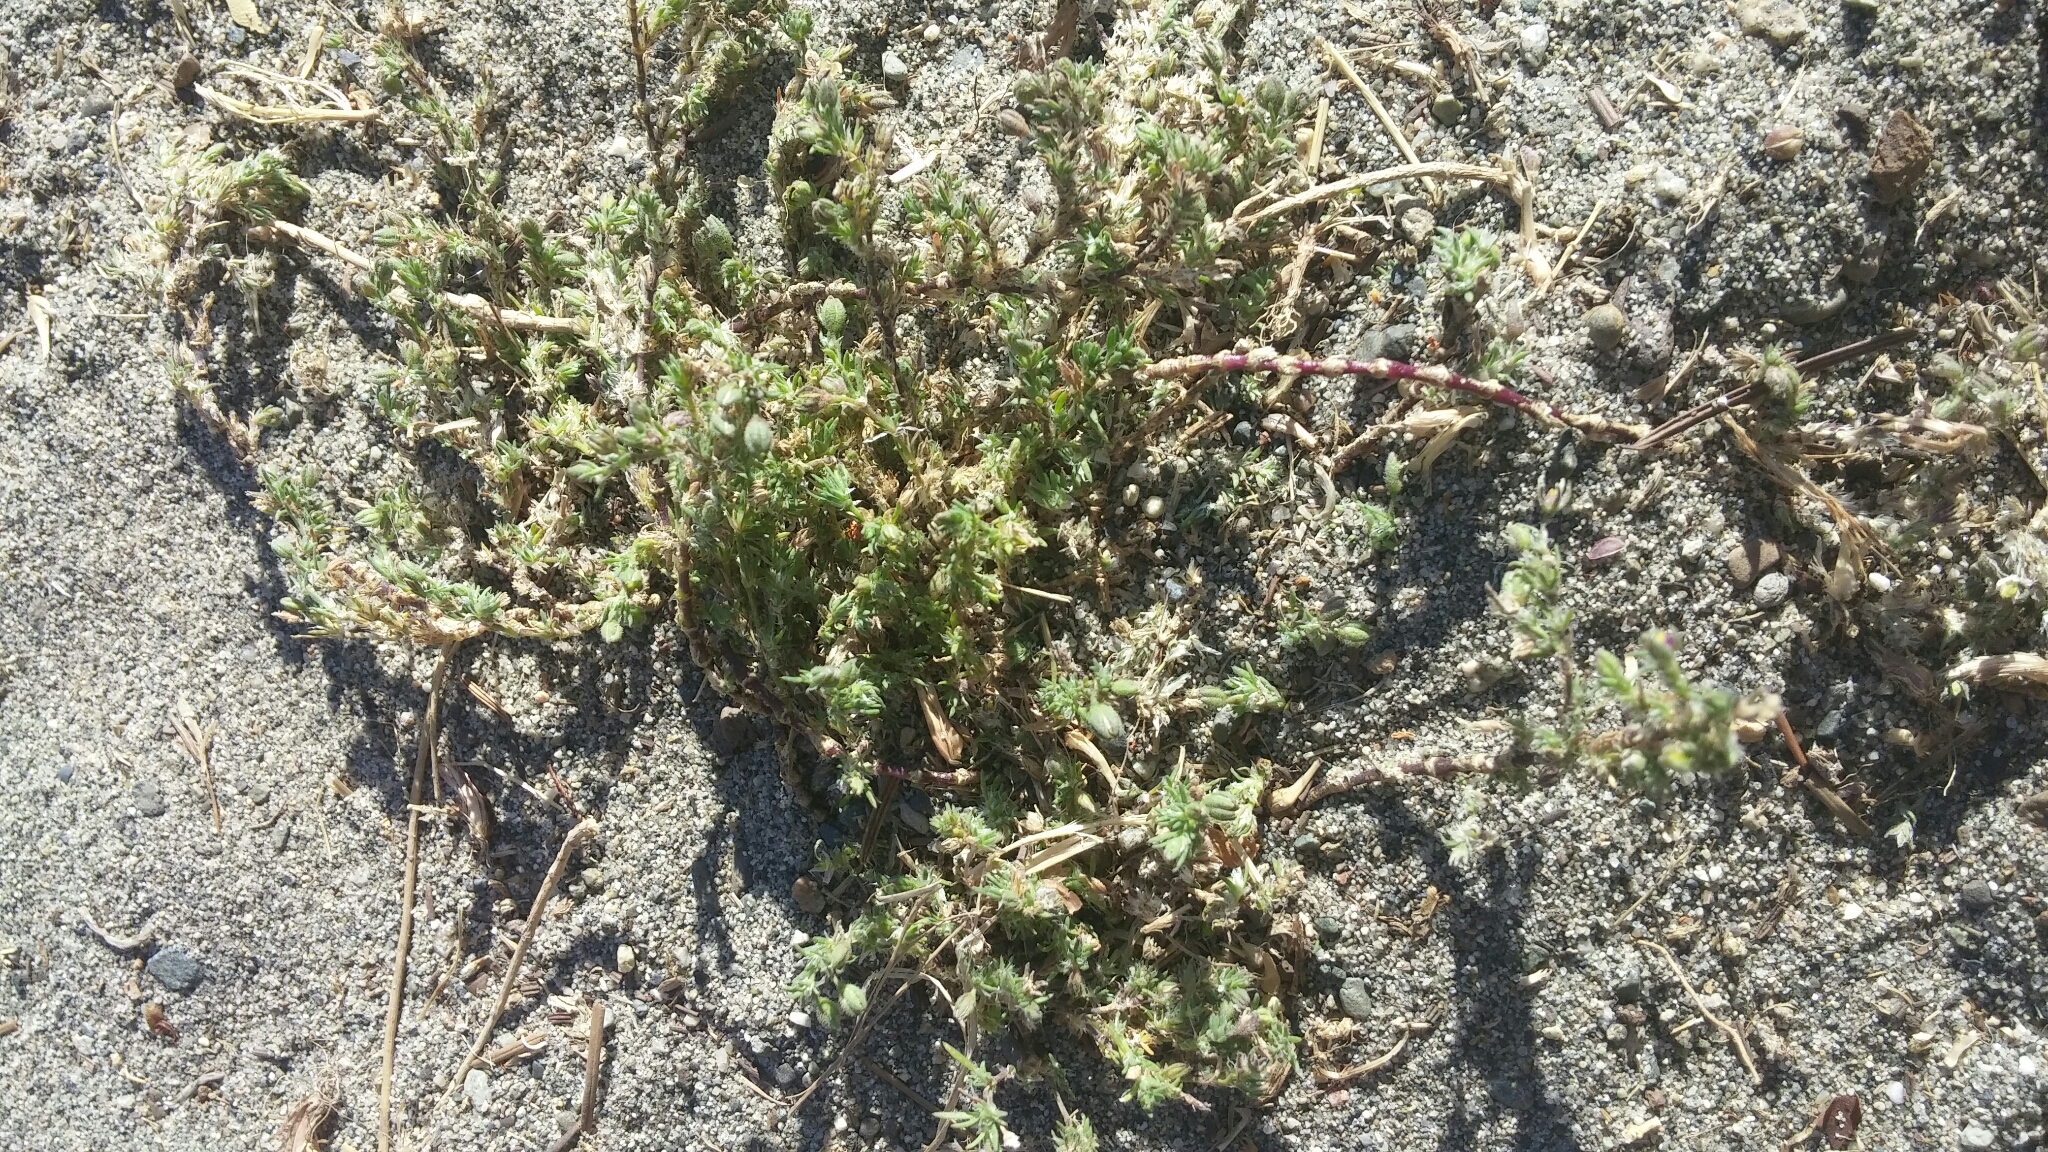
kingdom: Plantae
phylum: Tracheophyta
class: Magnoliopsida
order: Caryophyllales
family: Caryophyllaceae
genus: Spergularia
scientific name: Spergularia macrotheca
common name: Beach sand-spurrey
